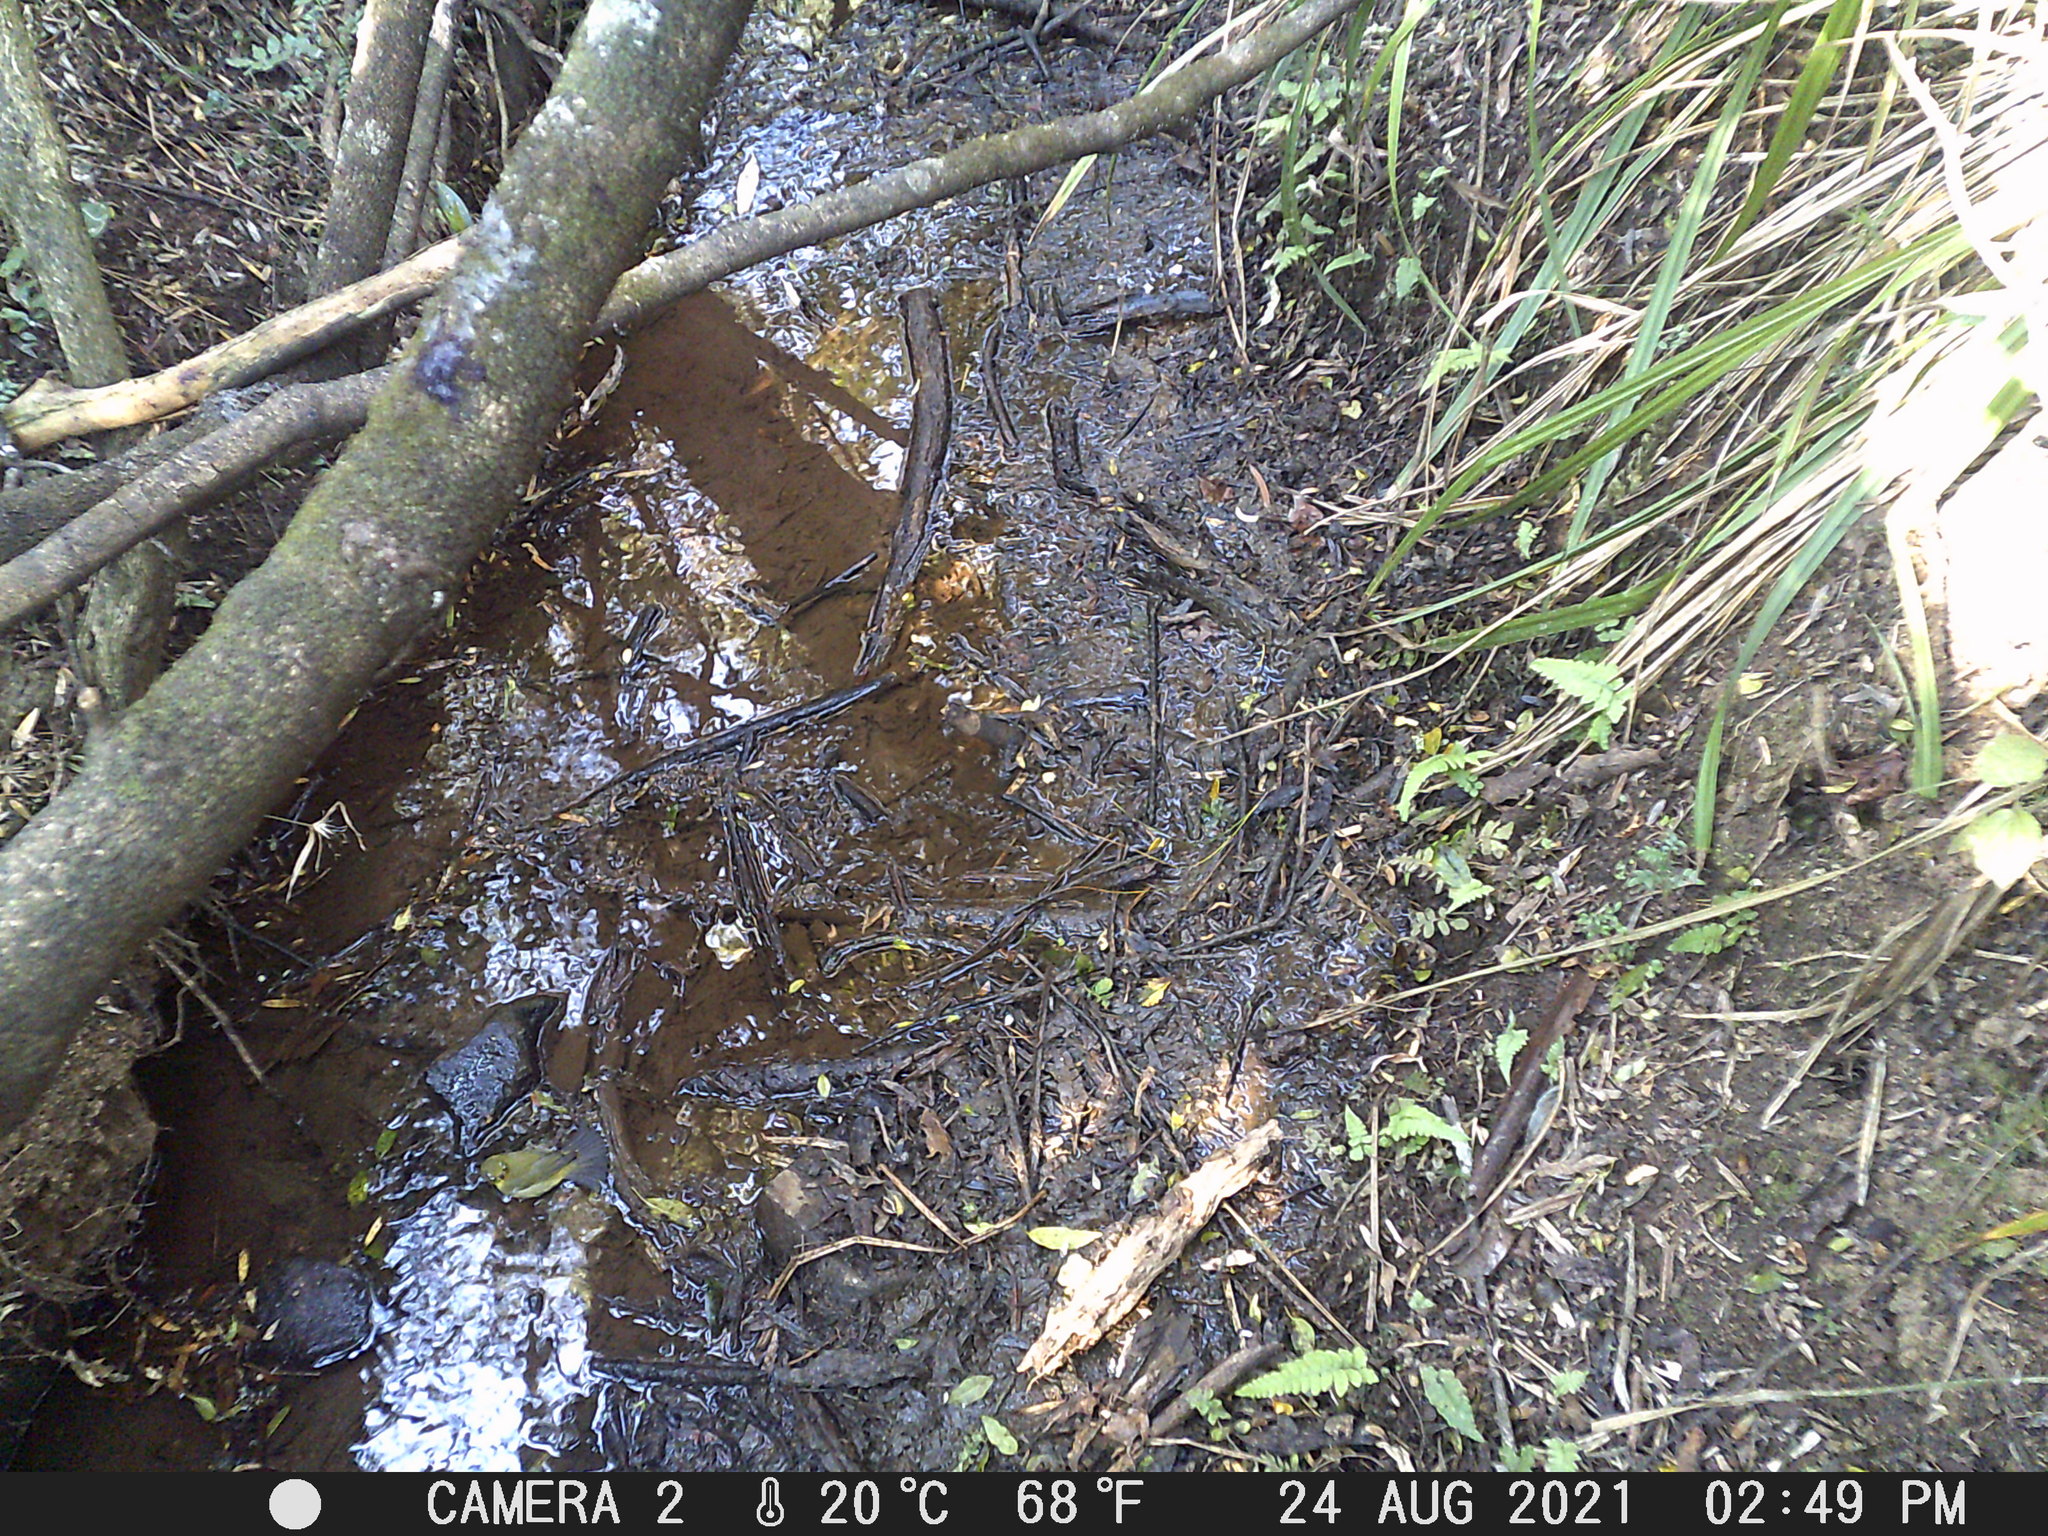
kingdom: Animalia
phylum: Chordata
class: Aves
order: Passeriformes
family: Zosteropidae
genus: Zosterops
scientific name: Zosterops virens
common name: Cape white-eye
